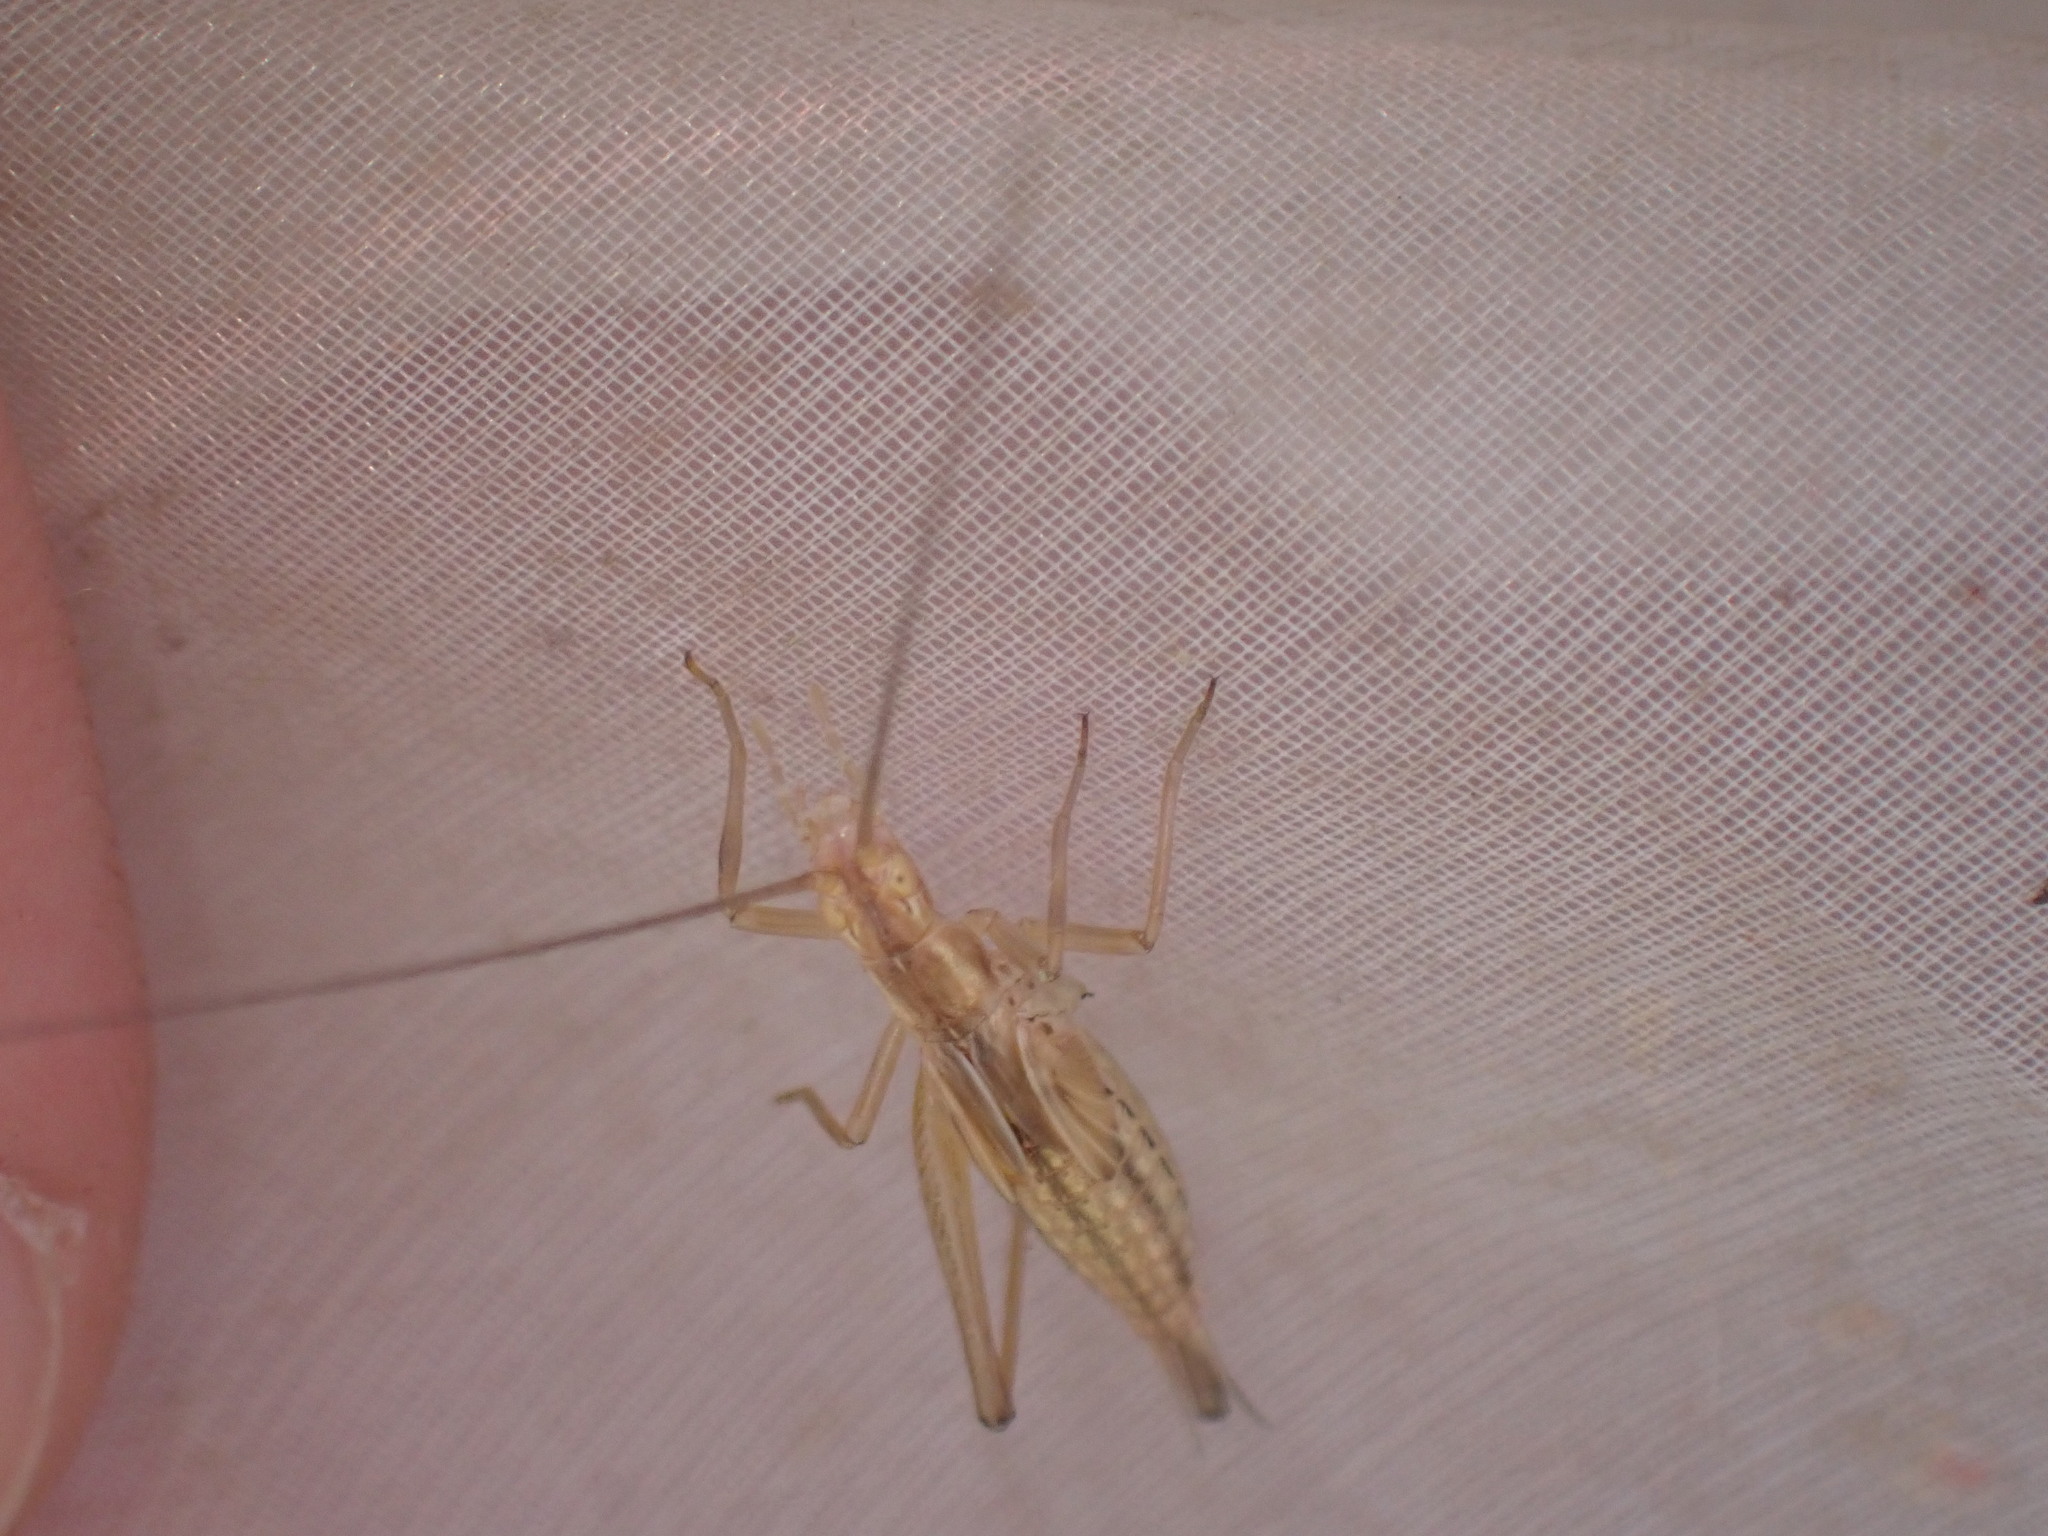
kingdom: Animalia
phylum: Arthropoda
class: Insecta
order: Orthoptera
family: Gryllidae
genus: Oecanthus
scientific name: Oecanthus pellucens
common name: Tree-cricket
